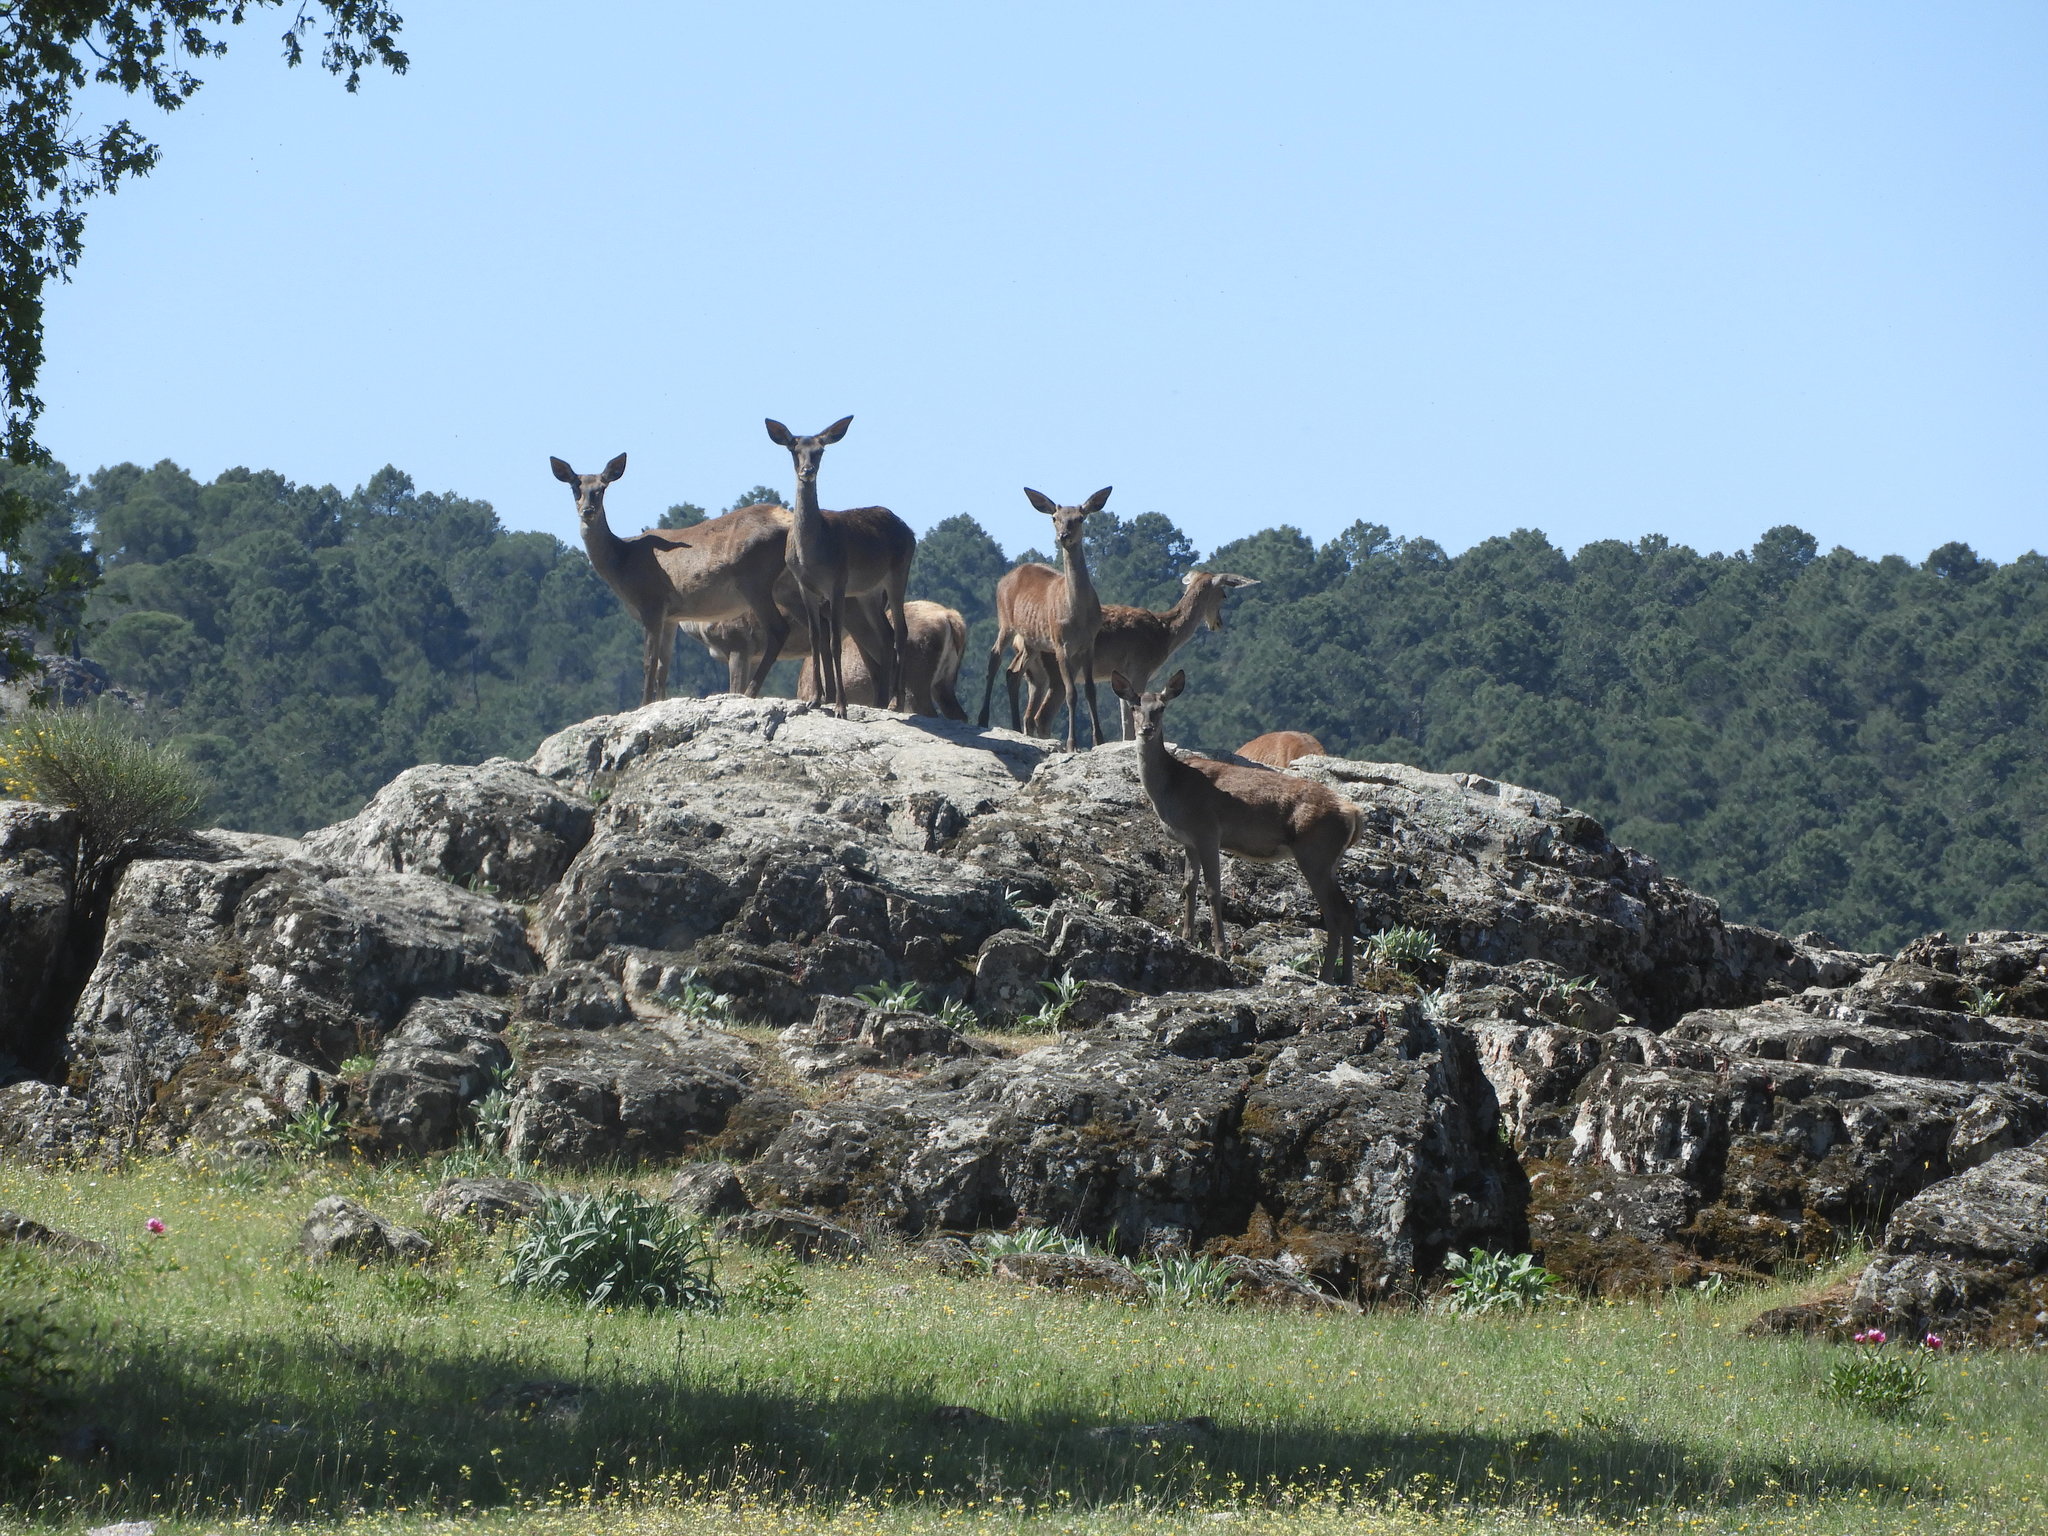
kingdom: Animalia
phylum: Chordata
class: Mammalia
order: Artiodactyla
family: Cervidae
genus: Cervus
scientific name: Cervus elaphus
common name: Red deer
